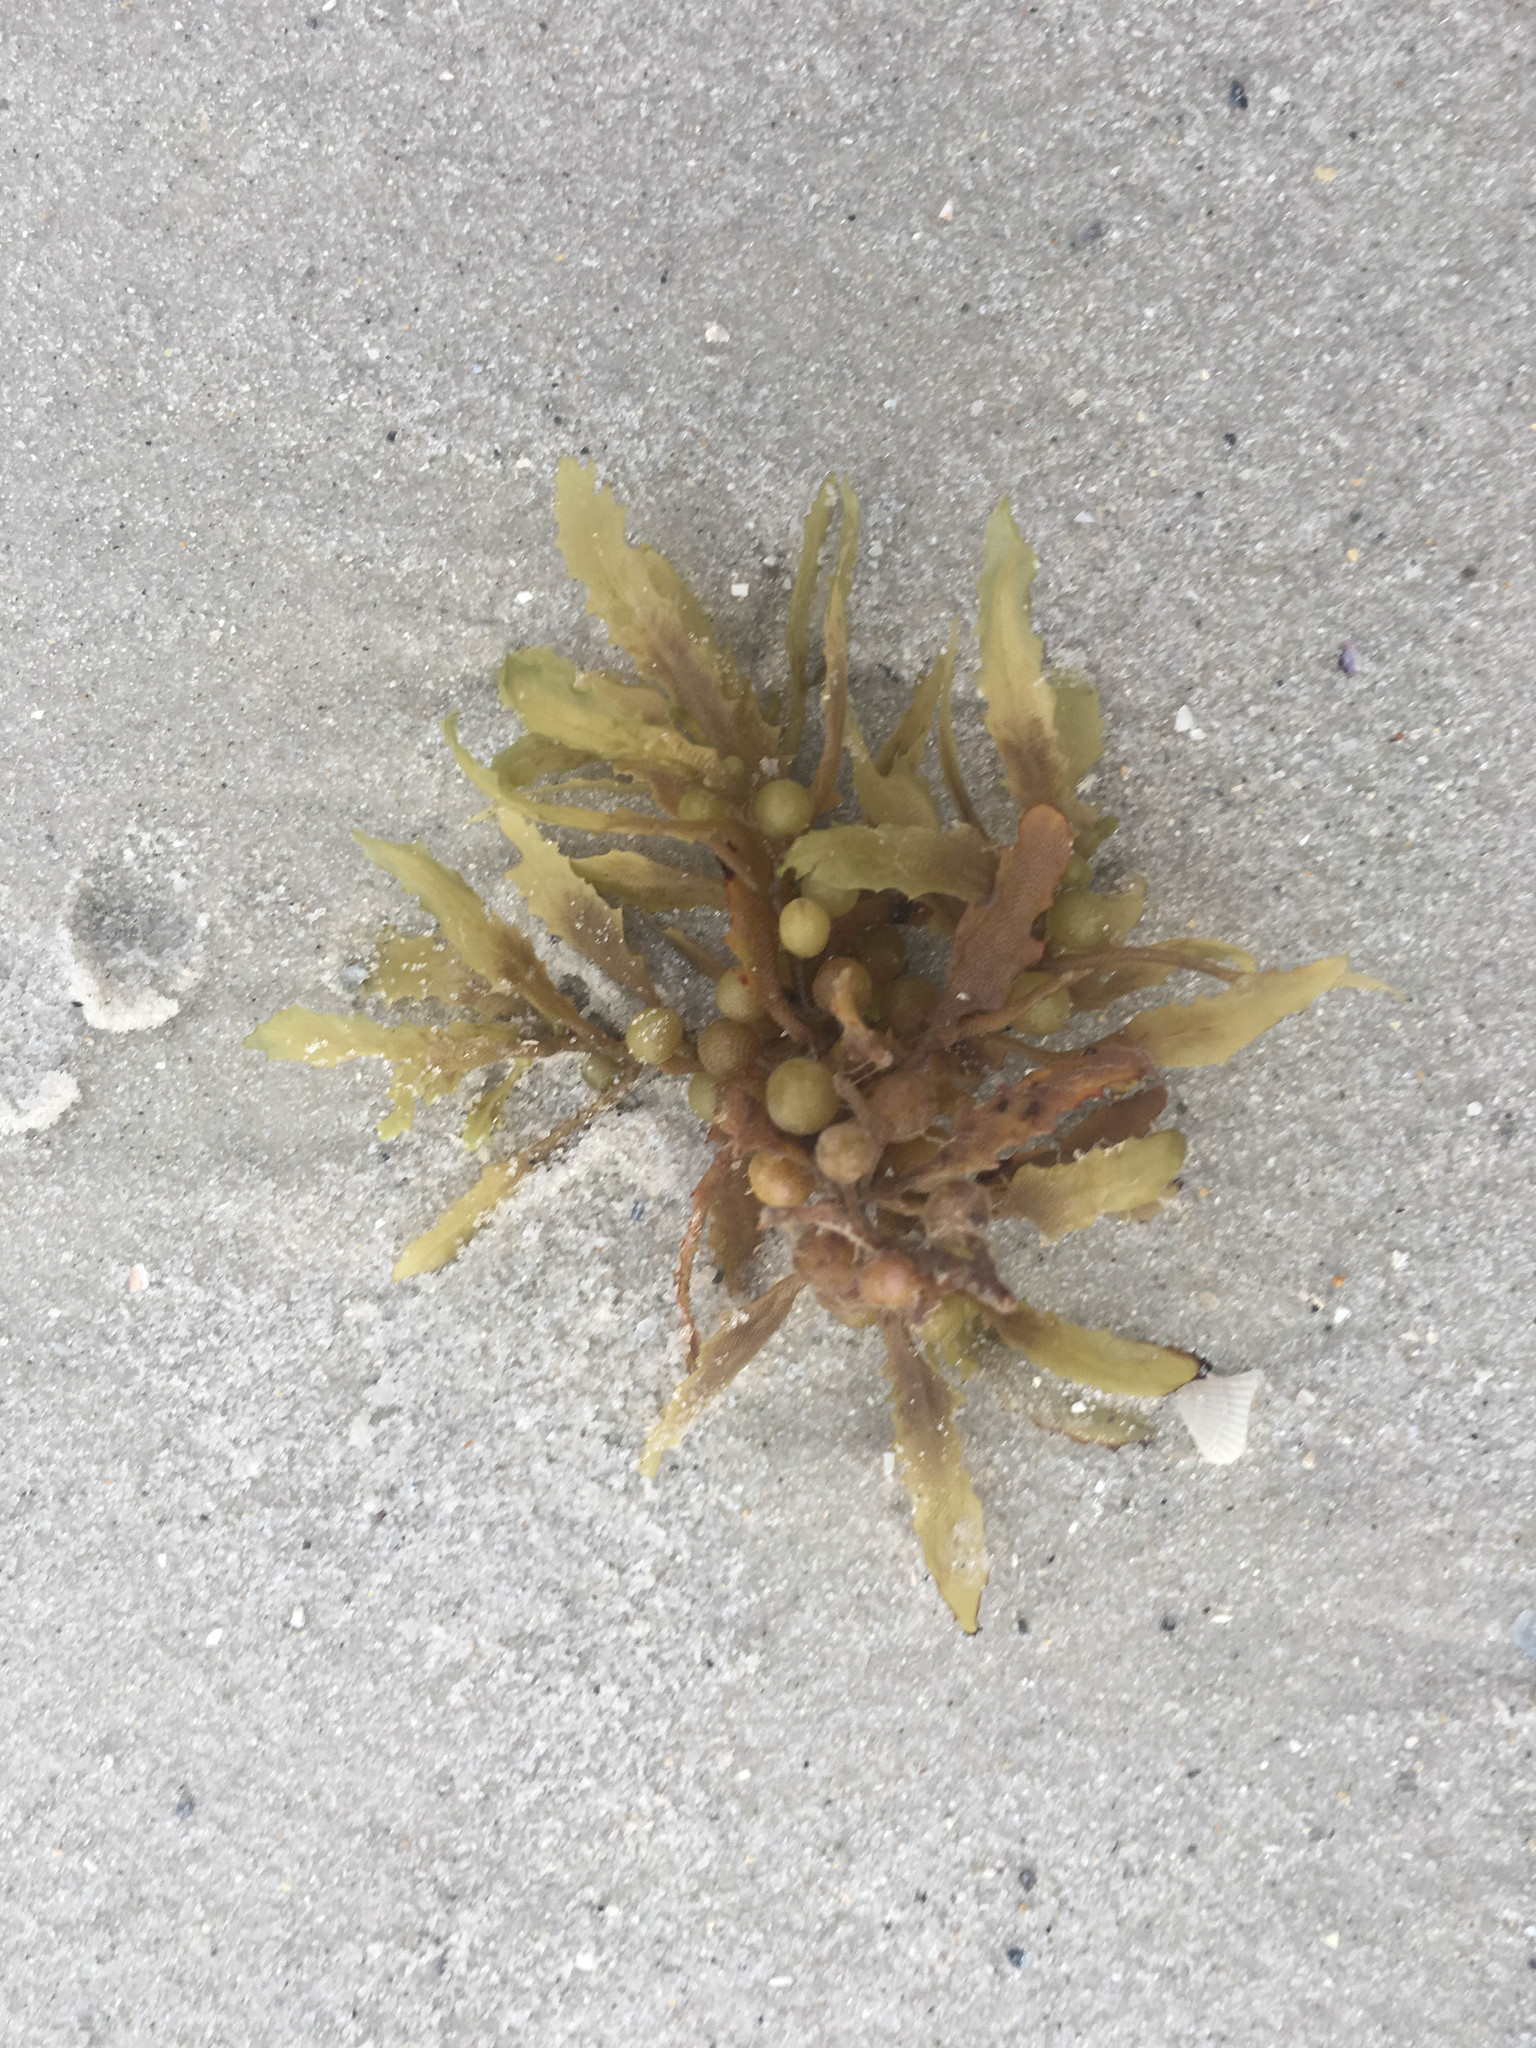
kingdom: Chromista
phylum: Ochrophyta
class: Phaeophyceae
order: Fucales
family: Sargassaceae
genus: Sargassum
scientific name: Sargassum fluitans
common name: Sargassum seaweed
